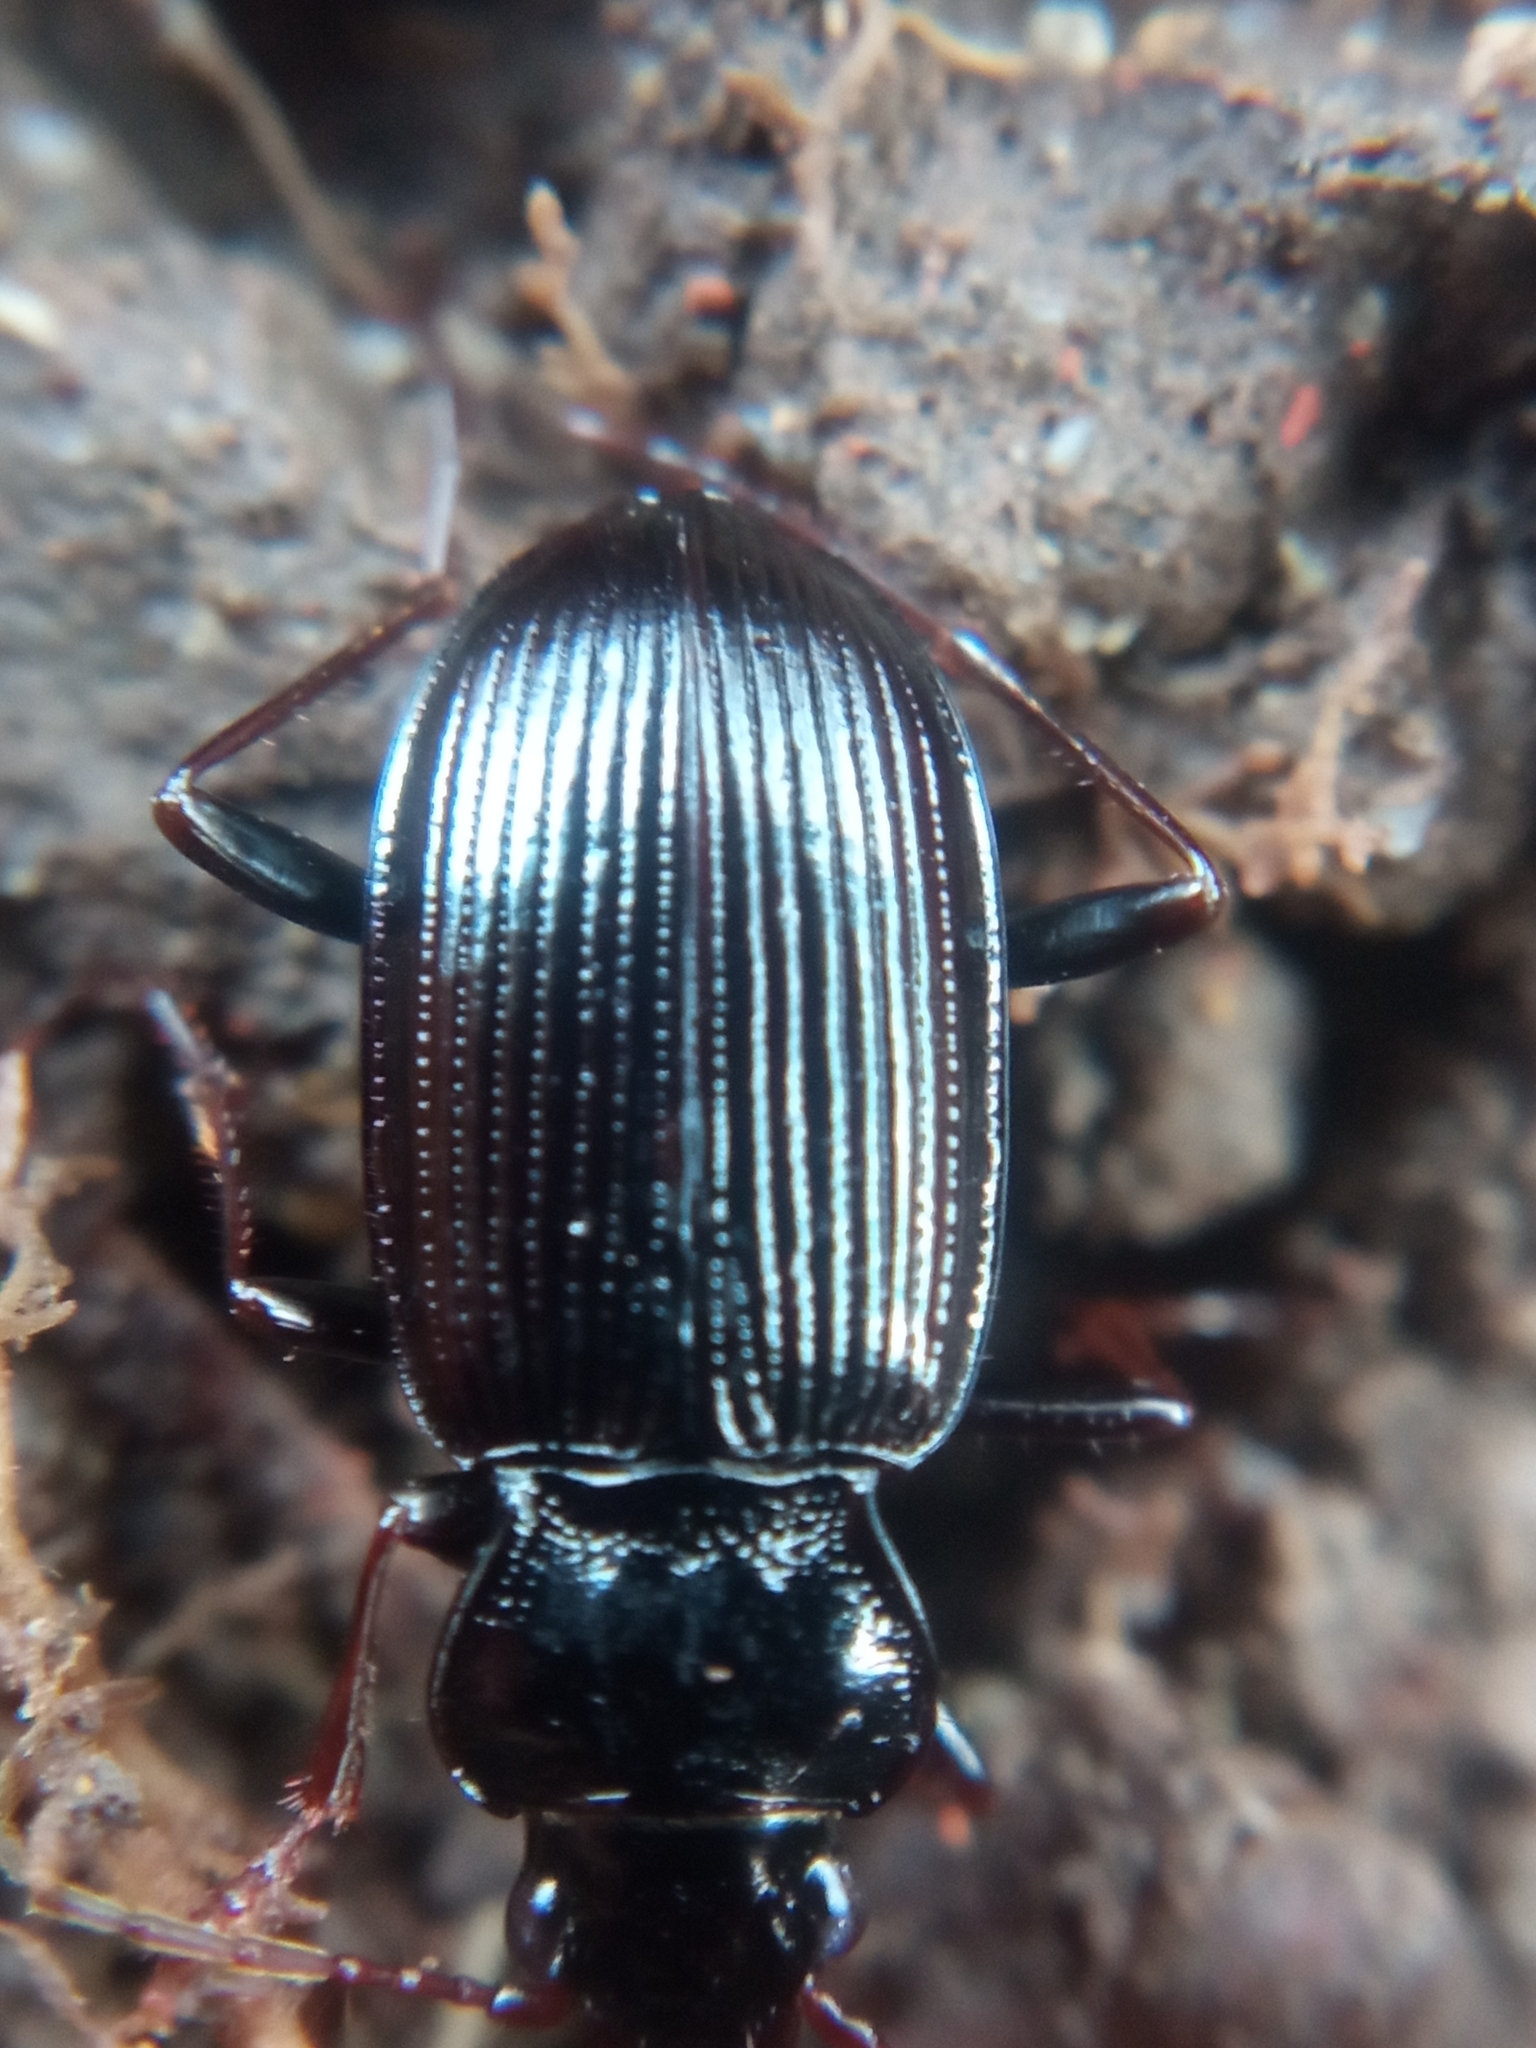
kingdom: Animalia
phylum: Arthropoda
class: Insecta
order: Coleoptera
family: Carabidae
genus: Nebria
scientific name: Nebria brevicollis
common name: Short-necked gazelle beetle
